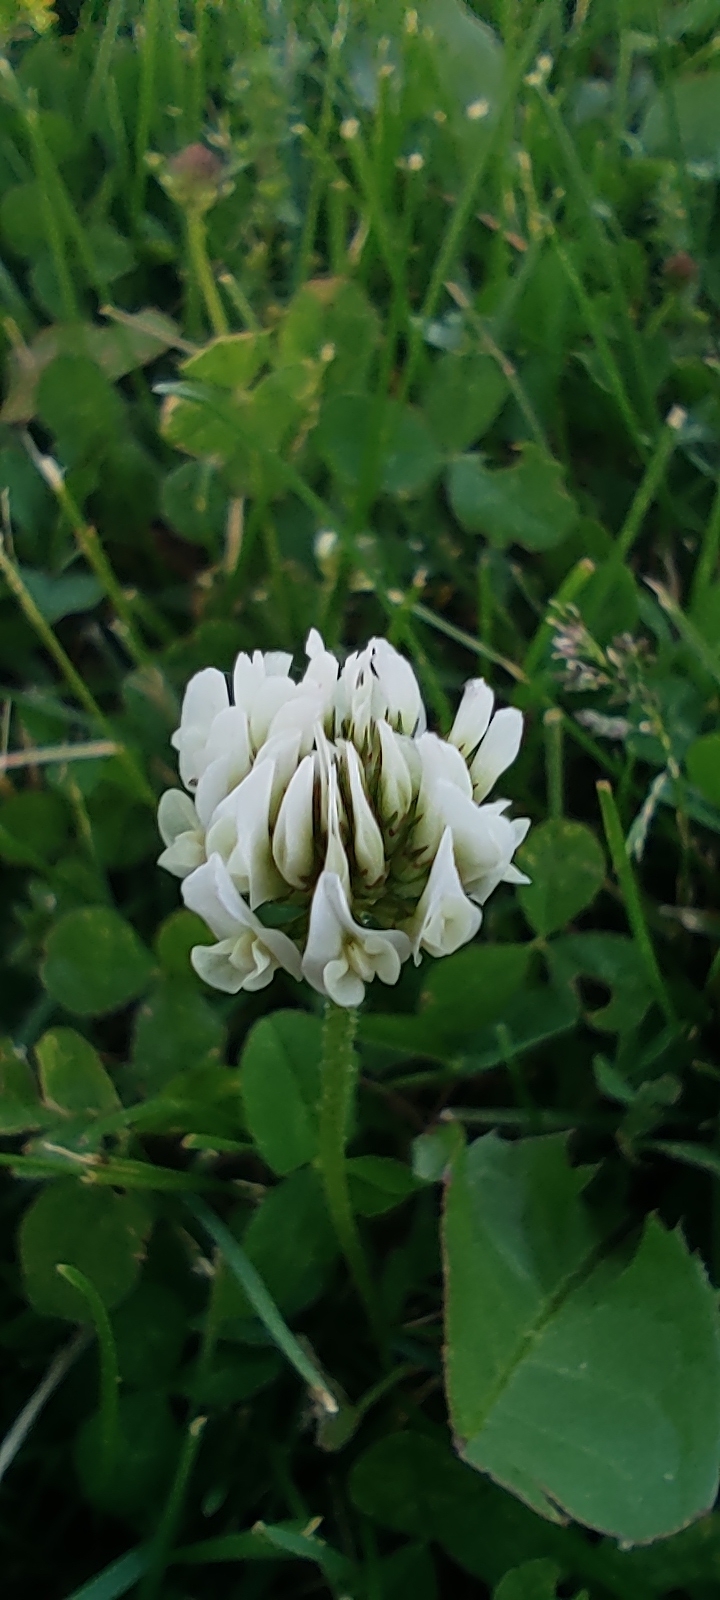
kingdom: Plantae
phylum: Tracheophyta
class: Magnoliopsida
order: Fabales
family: Fabaceae
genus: Trifolium
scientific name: Trifolium repens
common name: White clover
